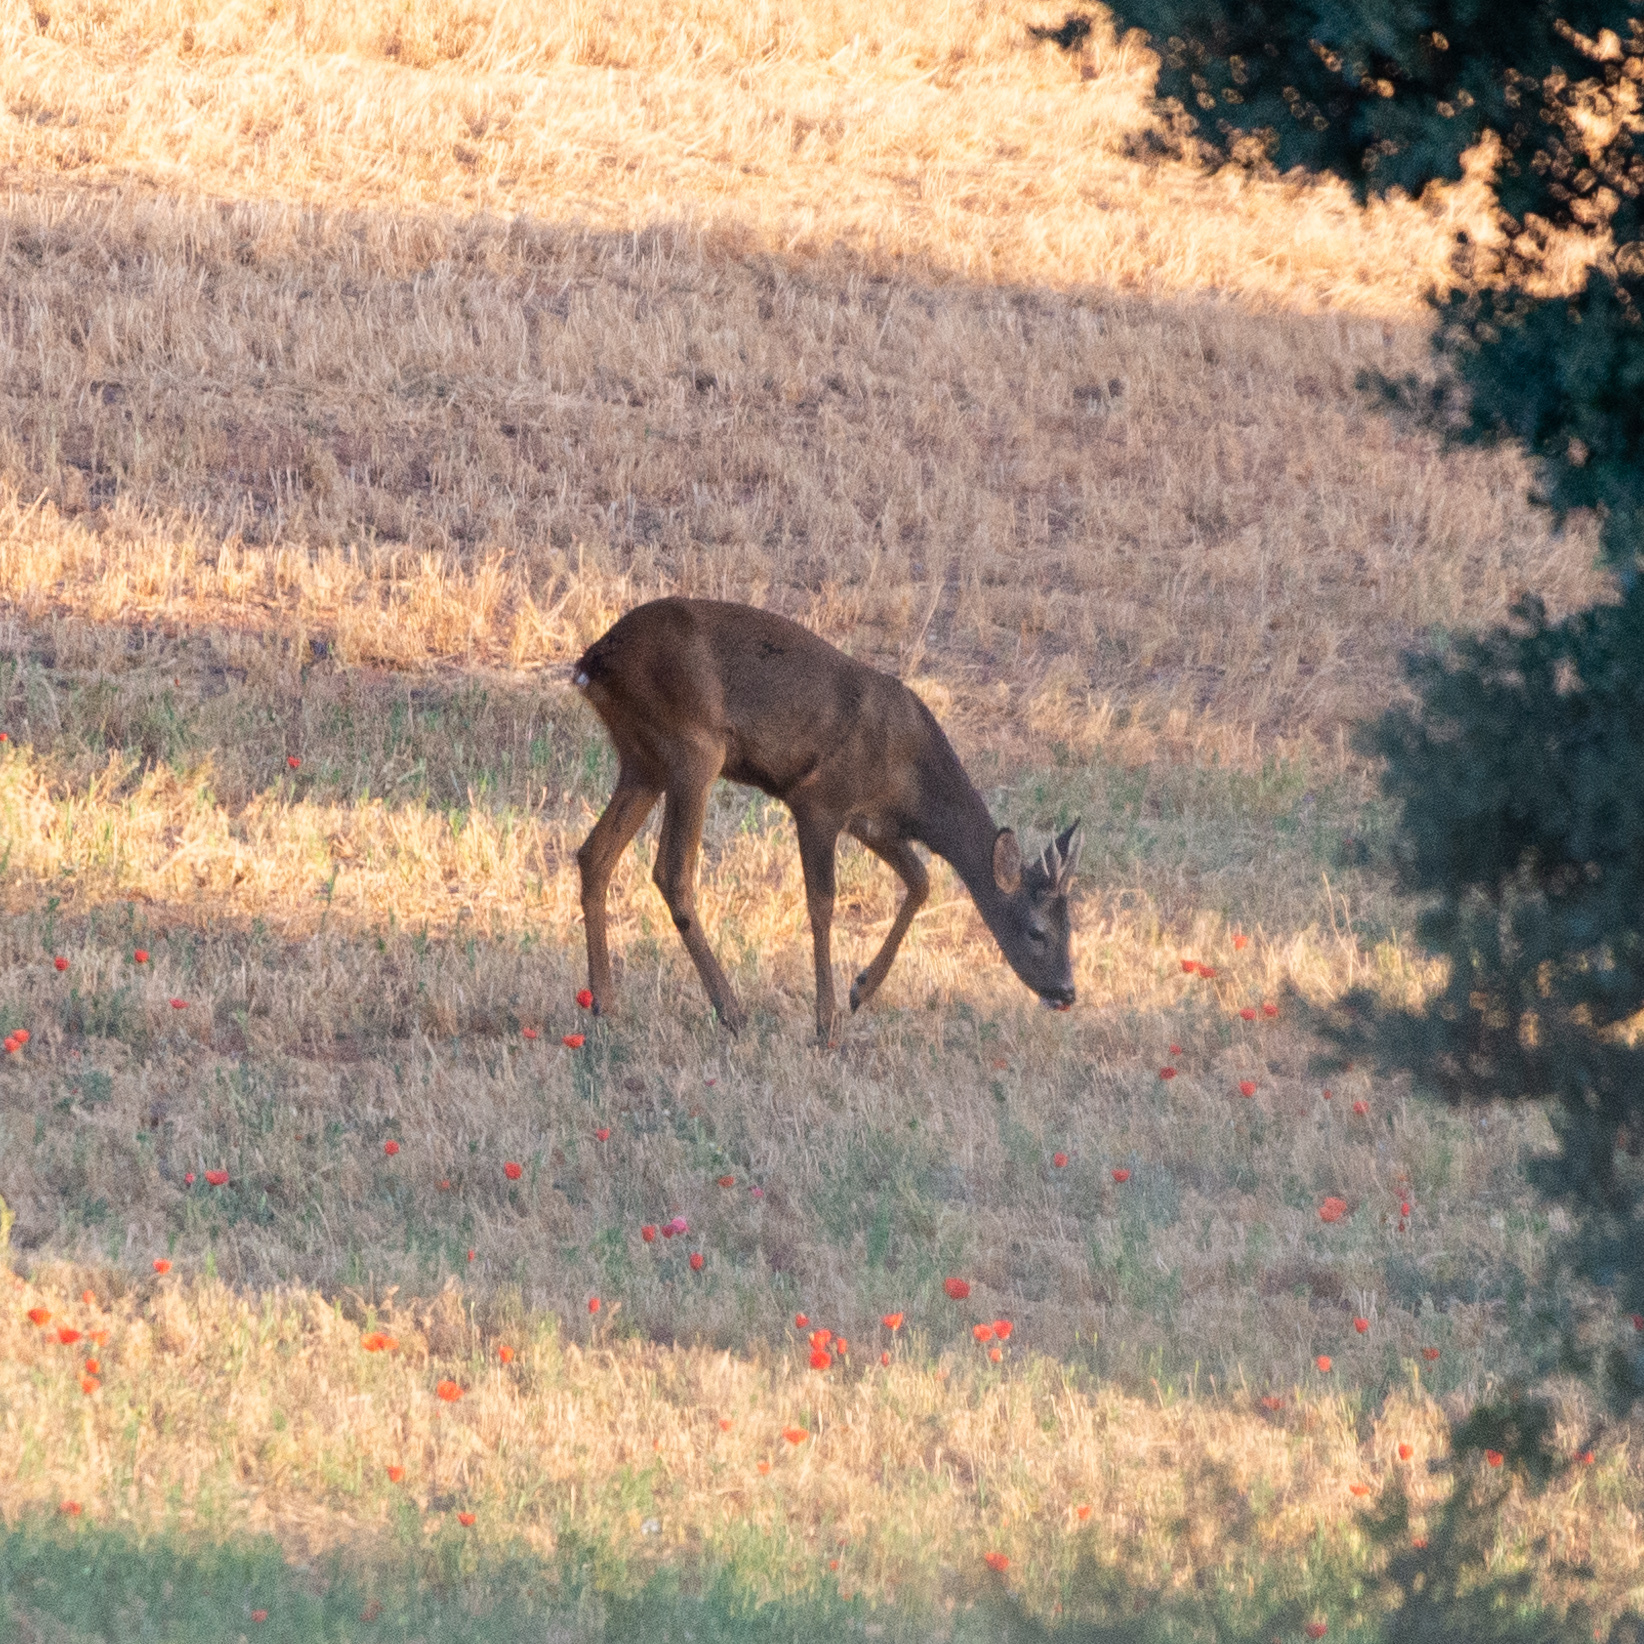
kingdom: Animalia
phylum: Chordata
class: Mammalia
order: Artiodactyla
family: Cervidae
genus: Capreolus
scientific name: Capreolus capreolus
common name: Western roe deer
